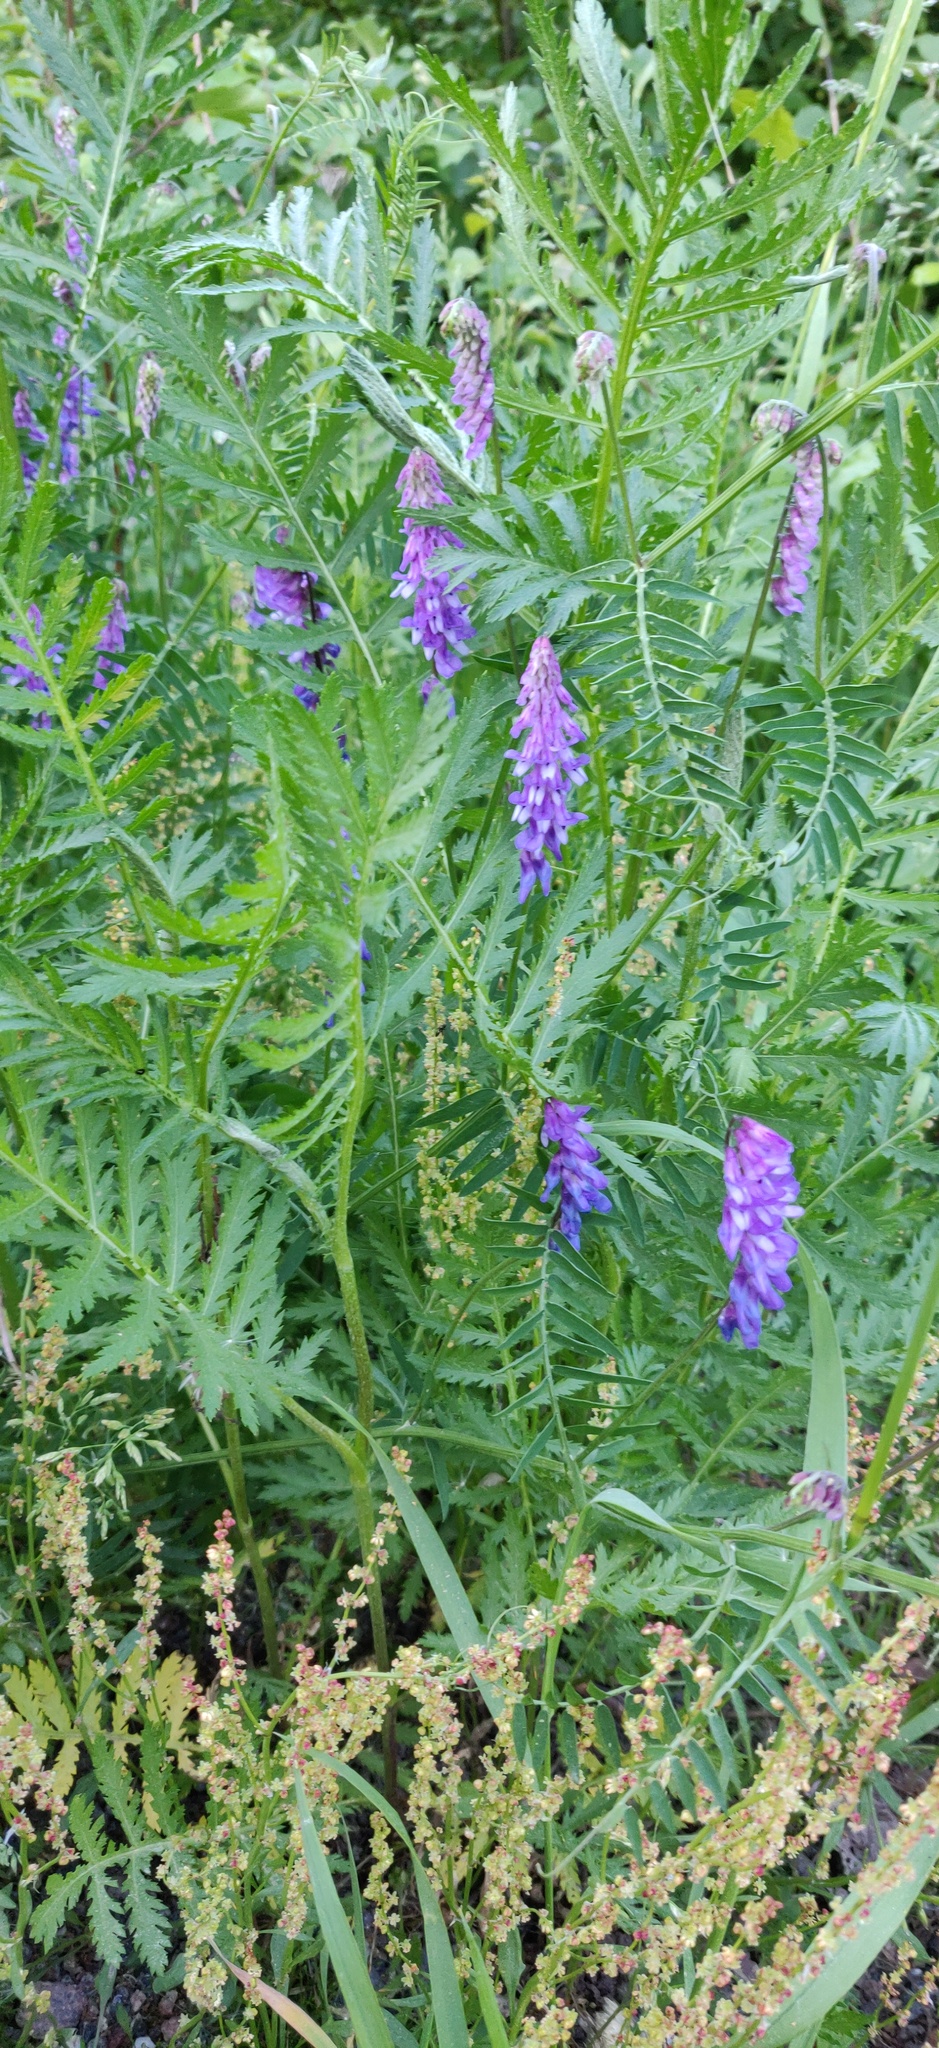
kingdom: Plantae
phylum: Tracheophyta
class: Magnoliopsida
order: Fabales
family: Fabaceae
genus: Vicia
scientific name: Vicia cracca
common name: Bird vetch
